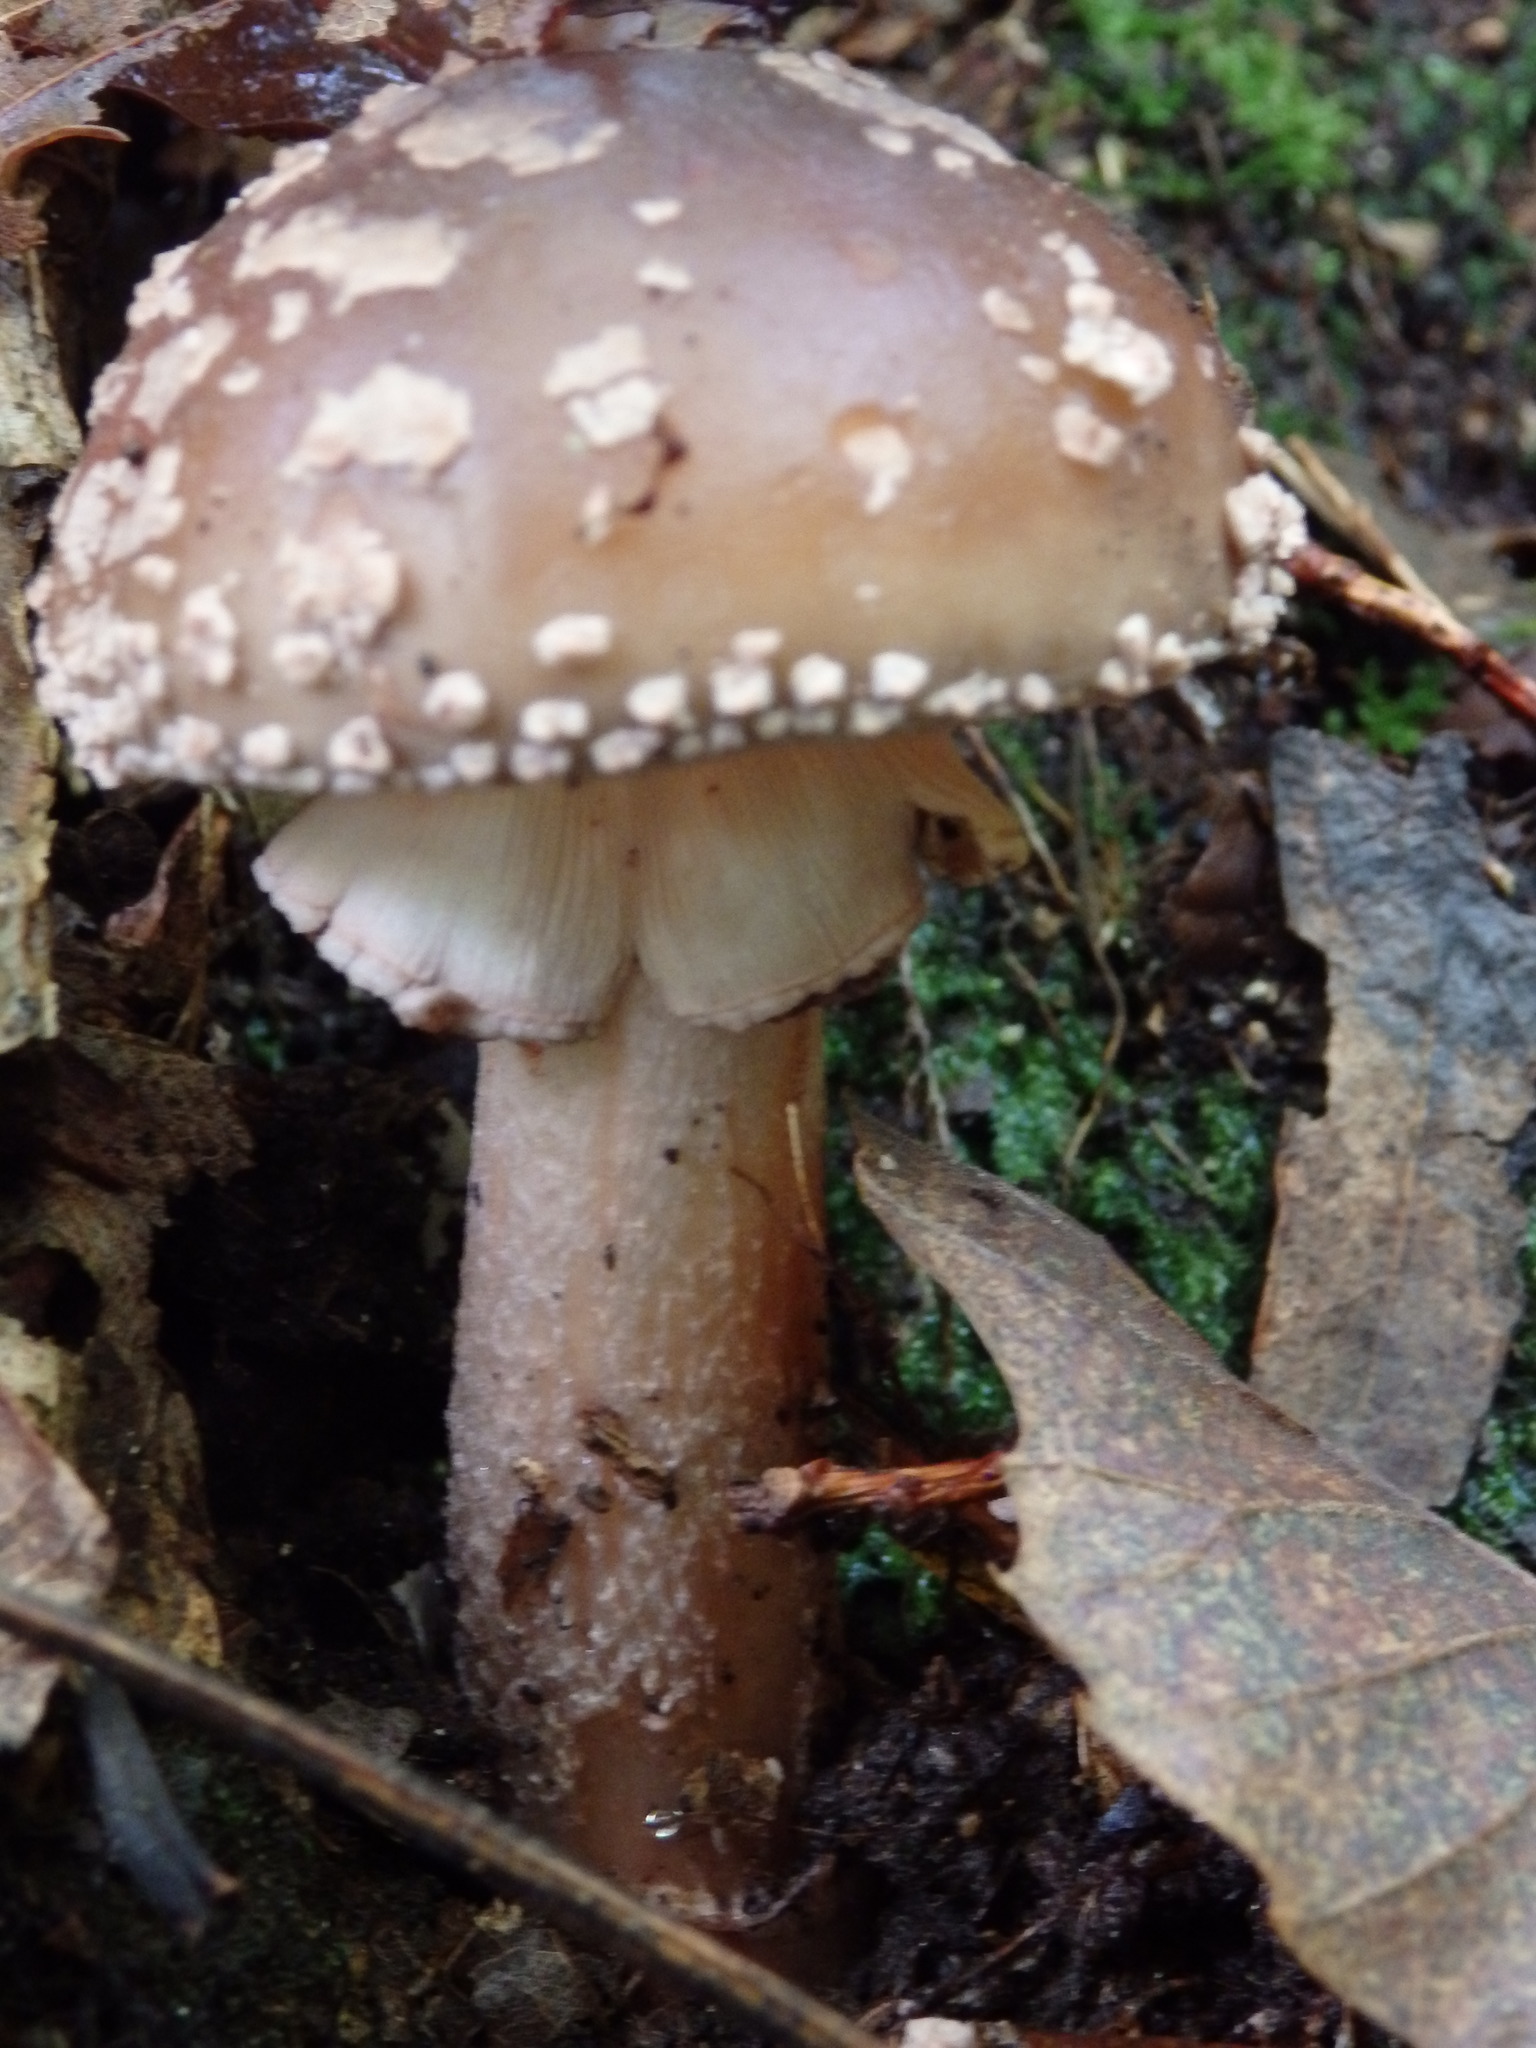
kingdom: Fungi
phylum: Basidiomycota
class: Agaricomycetes
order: Agaricales
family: Amanitaceae
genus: Amanita
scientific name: Amanita rubescens
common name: Blusher
